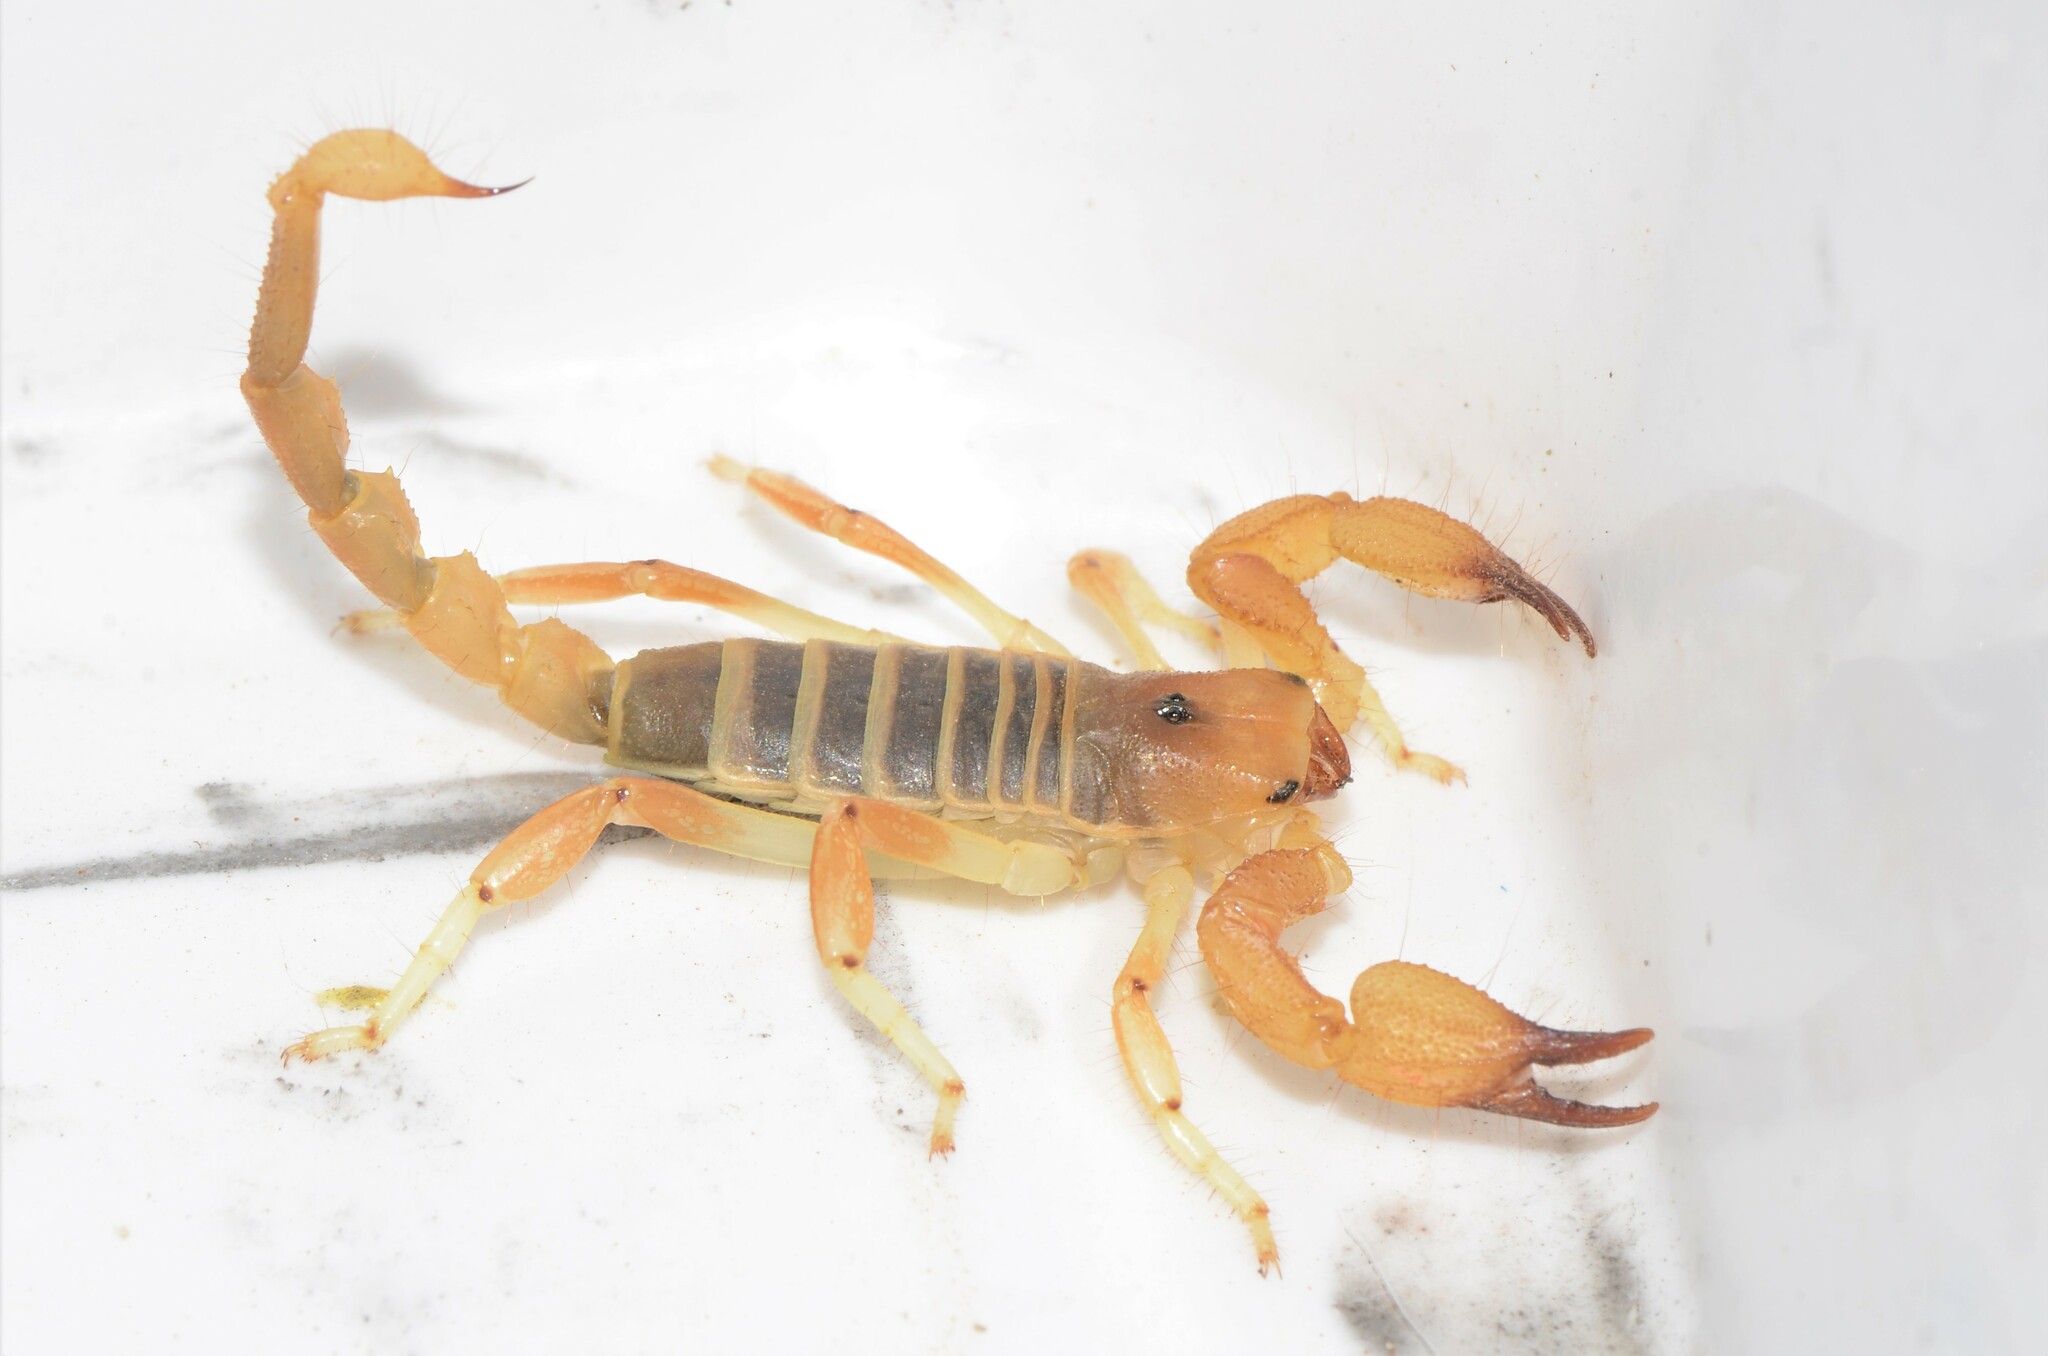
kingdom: Animalia
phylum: Arthropoda
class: Arachnida
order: Scorpiones
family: Scorpionidae
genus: Opistophthalmus
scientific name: Opistophthalmus lornae
